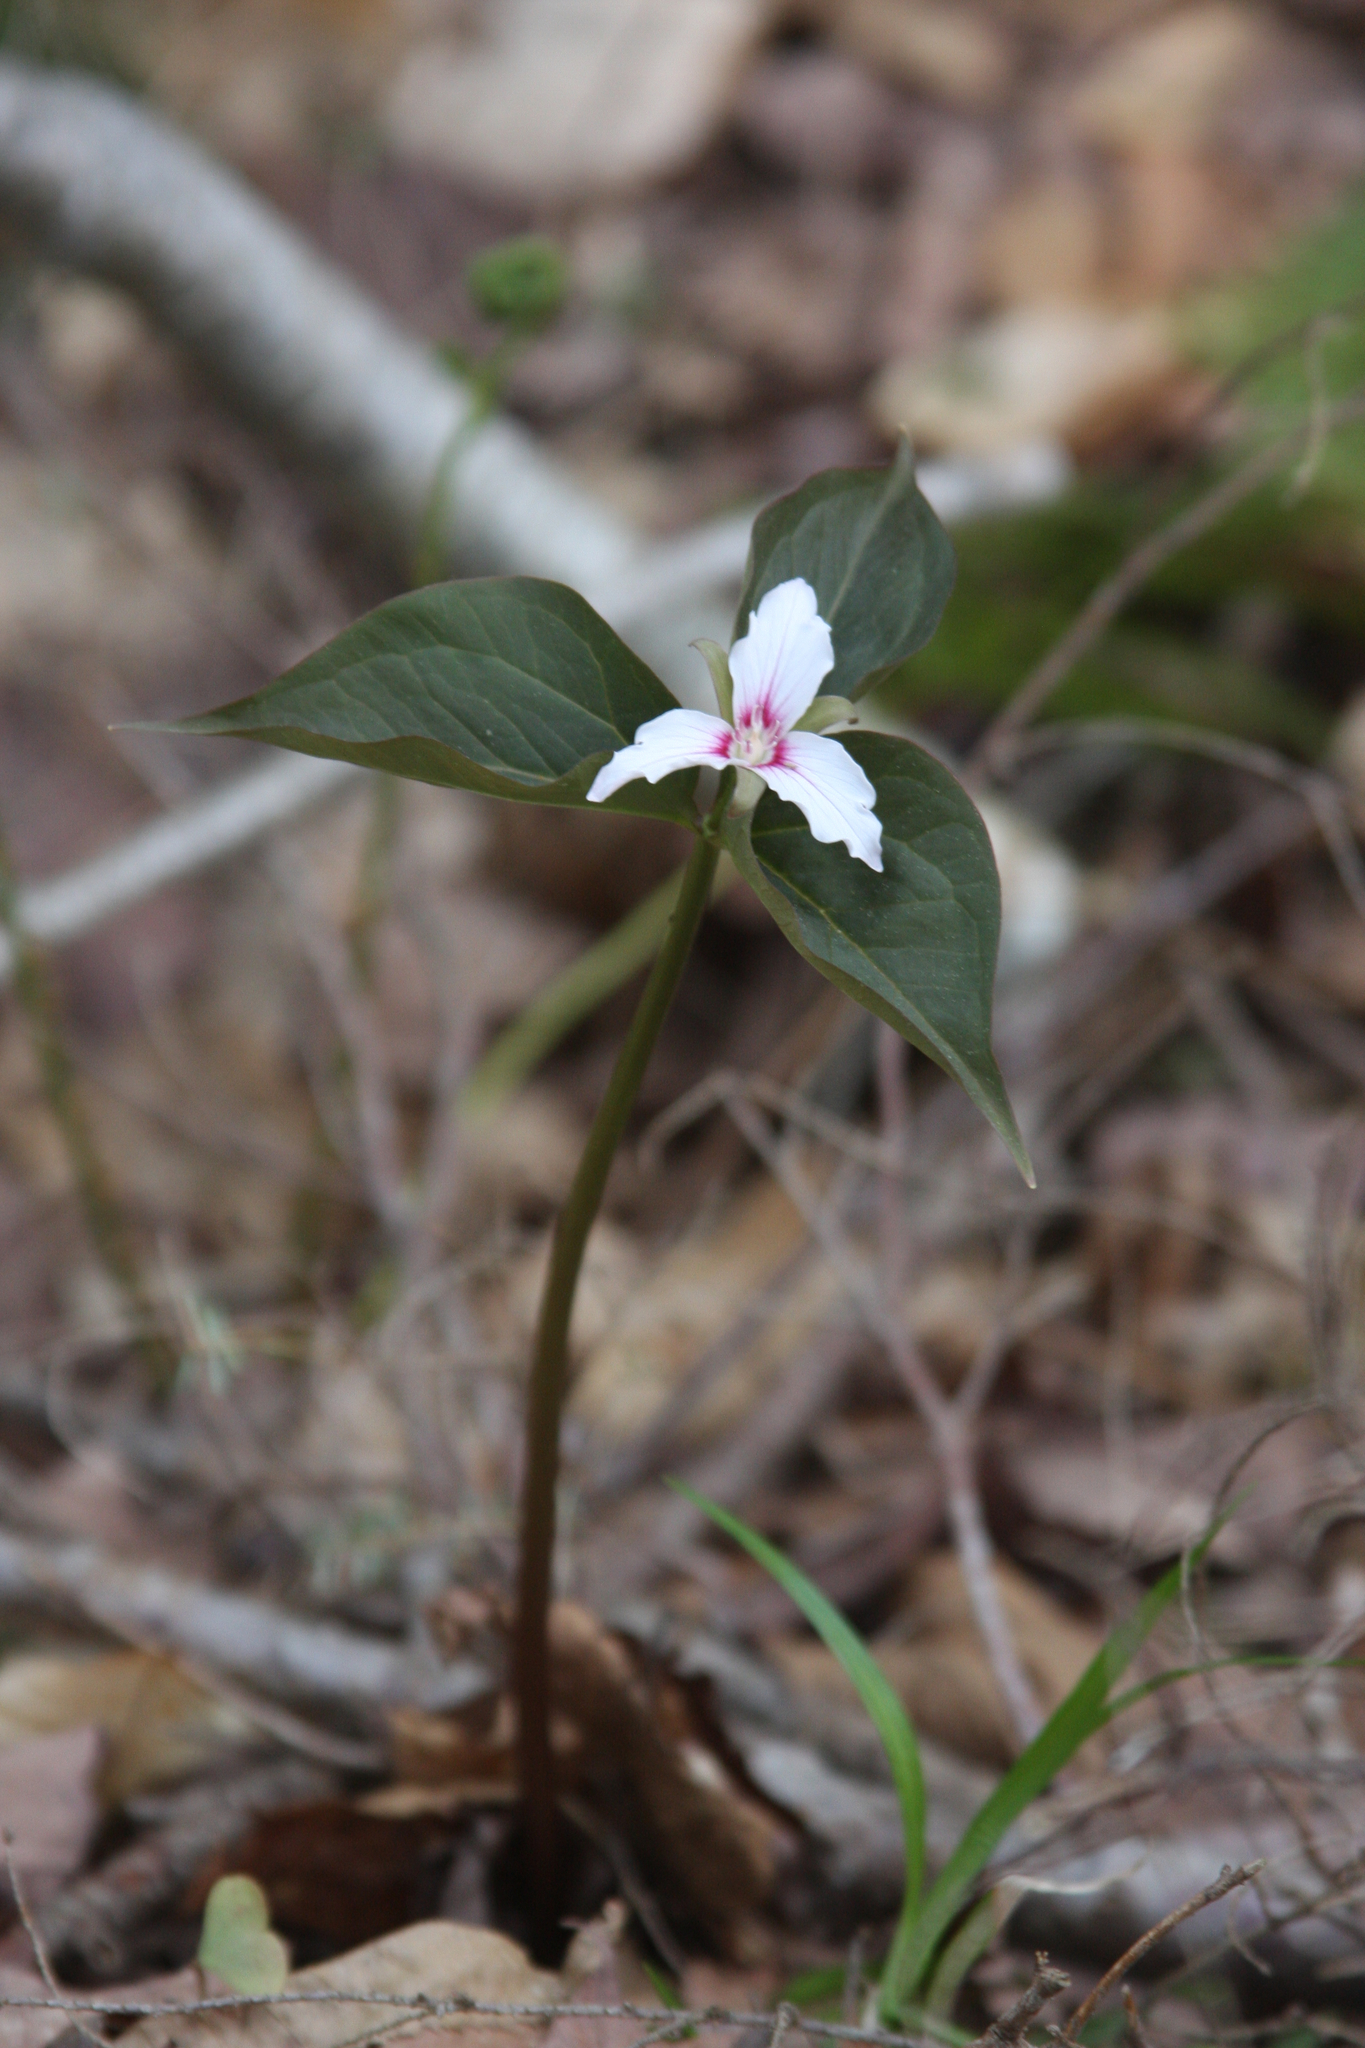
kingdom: Plantae
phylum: Tracheophyta
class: Liliopsida
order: Liliales
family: Melanthiaceae
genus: Trillium
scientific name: Trillium undulatum
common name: Paint trillium
